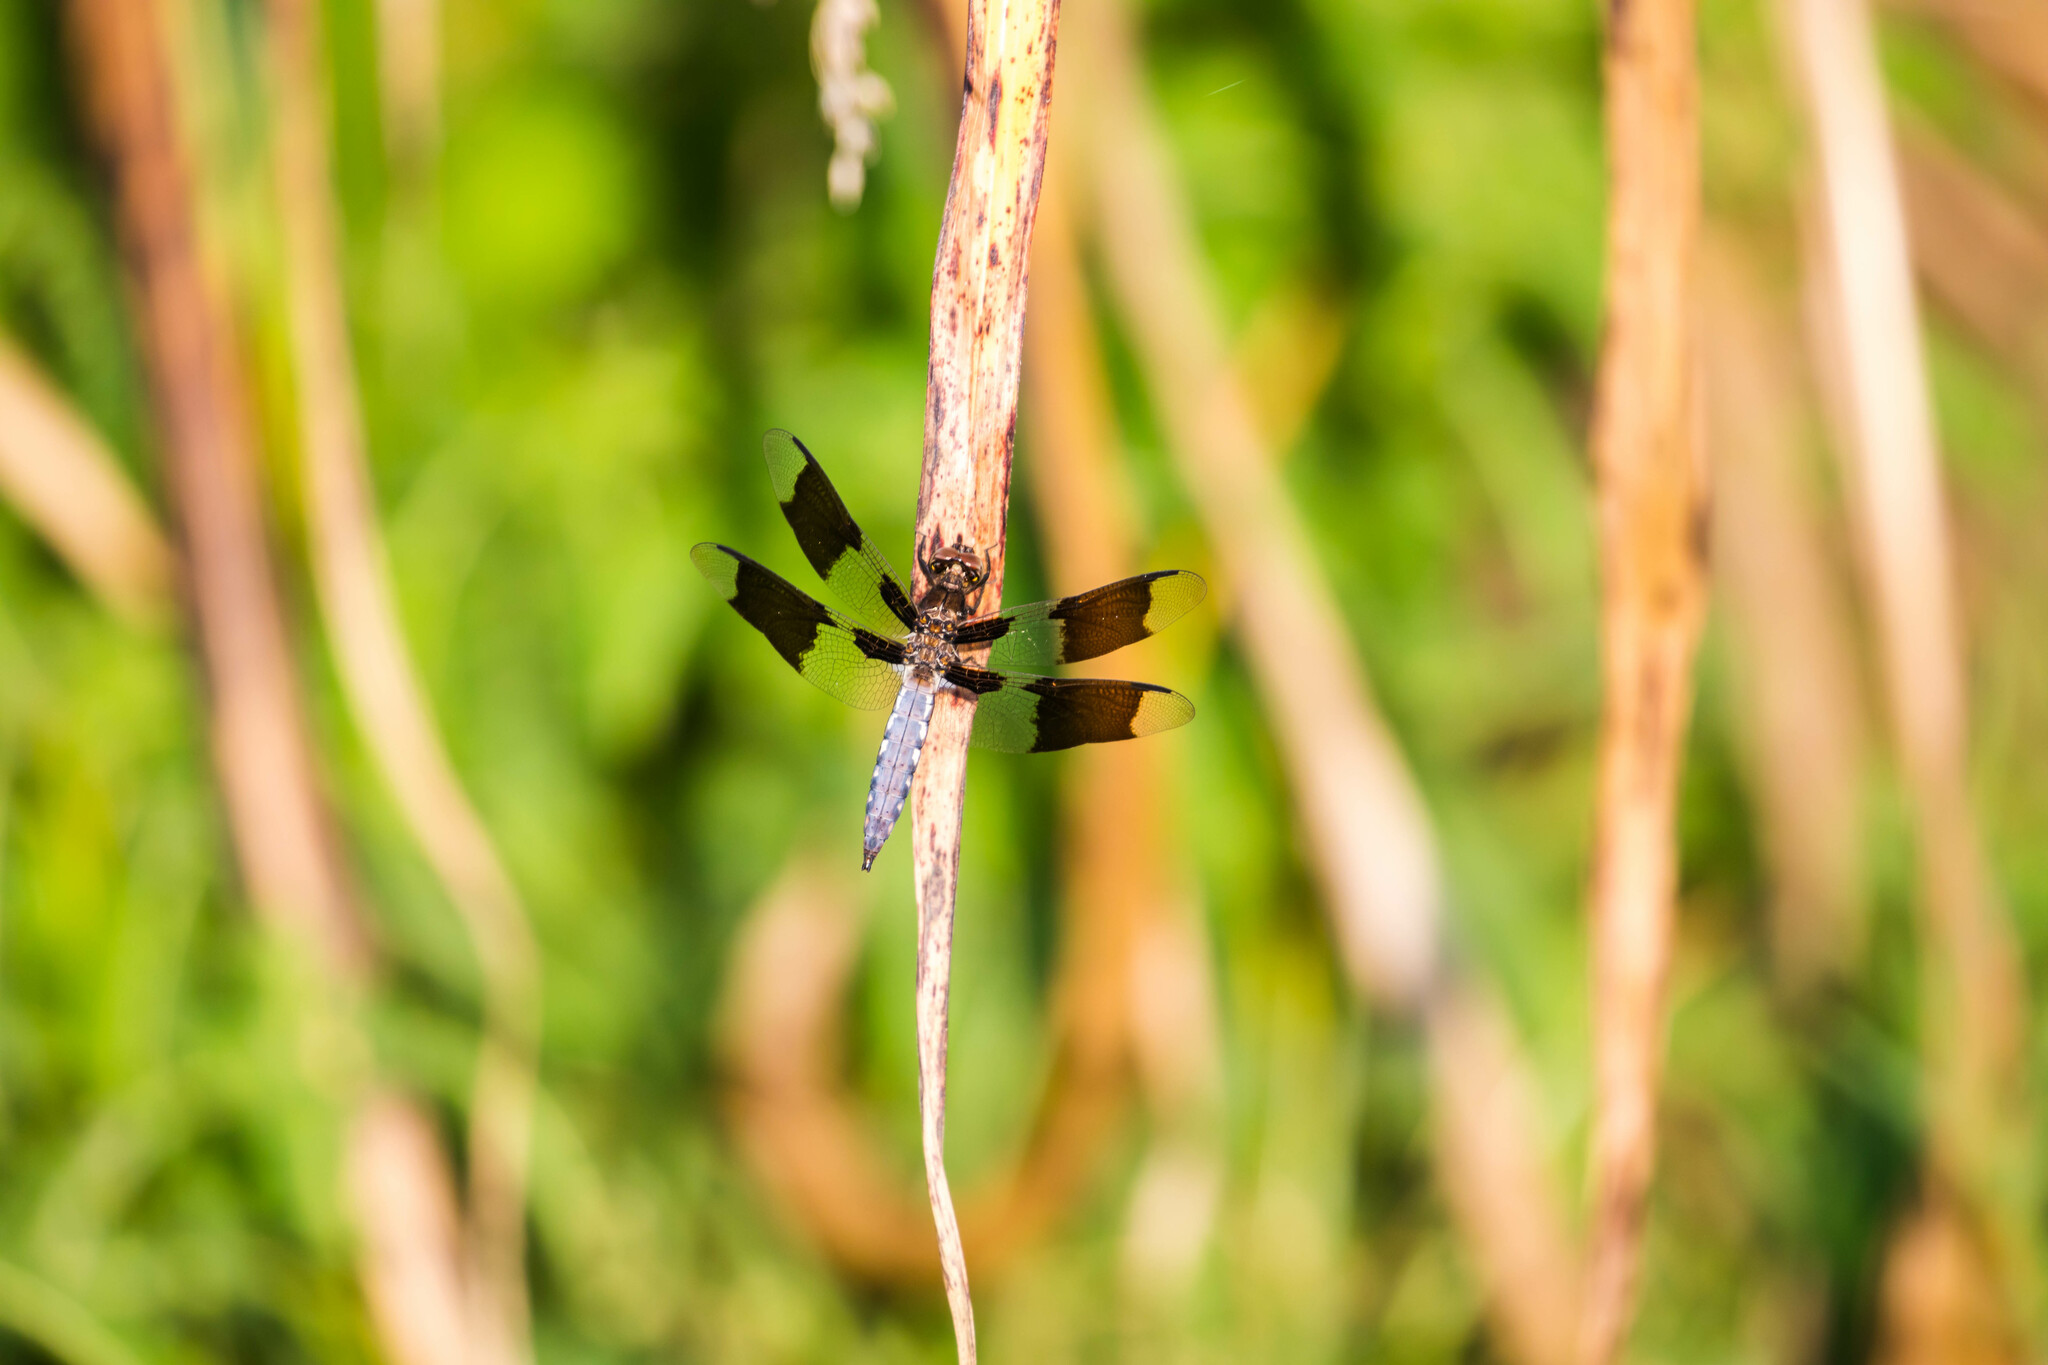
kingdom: Animalia
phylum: Arthropoda
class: Insecta
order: Odonata
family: Libellulidae
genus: Plathemis
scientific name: Plathemis lydia
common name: Common whitetail
